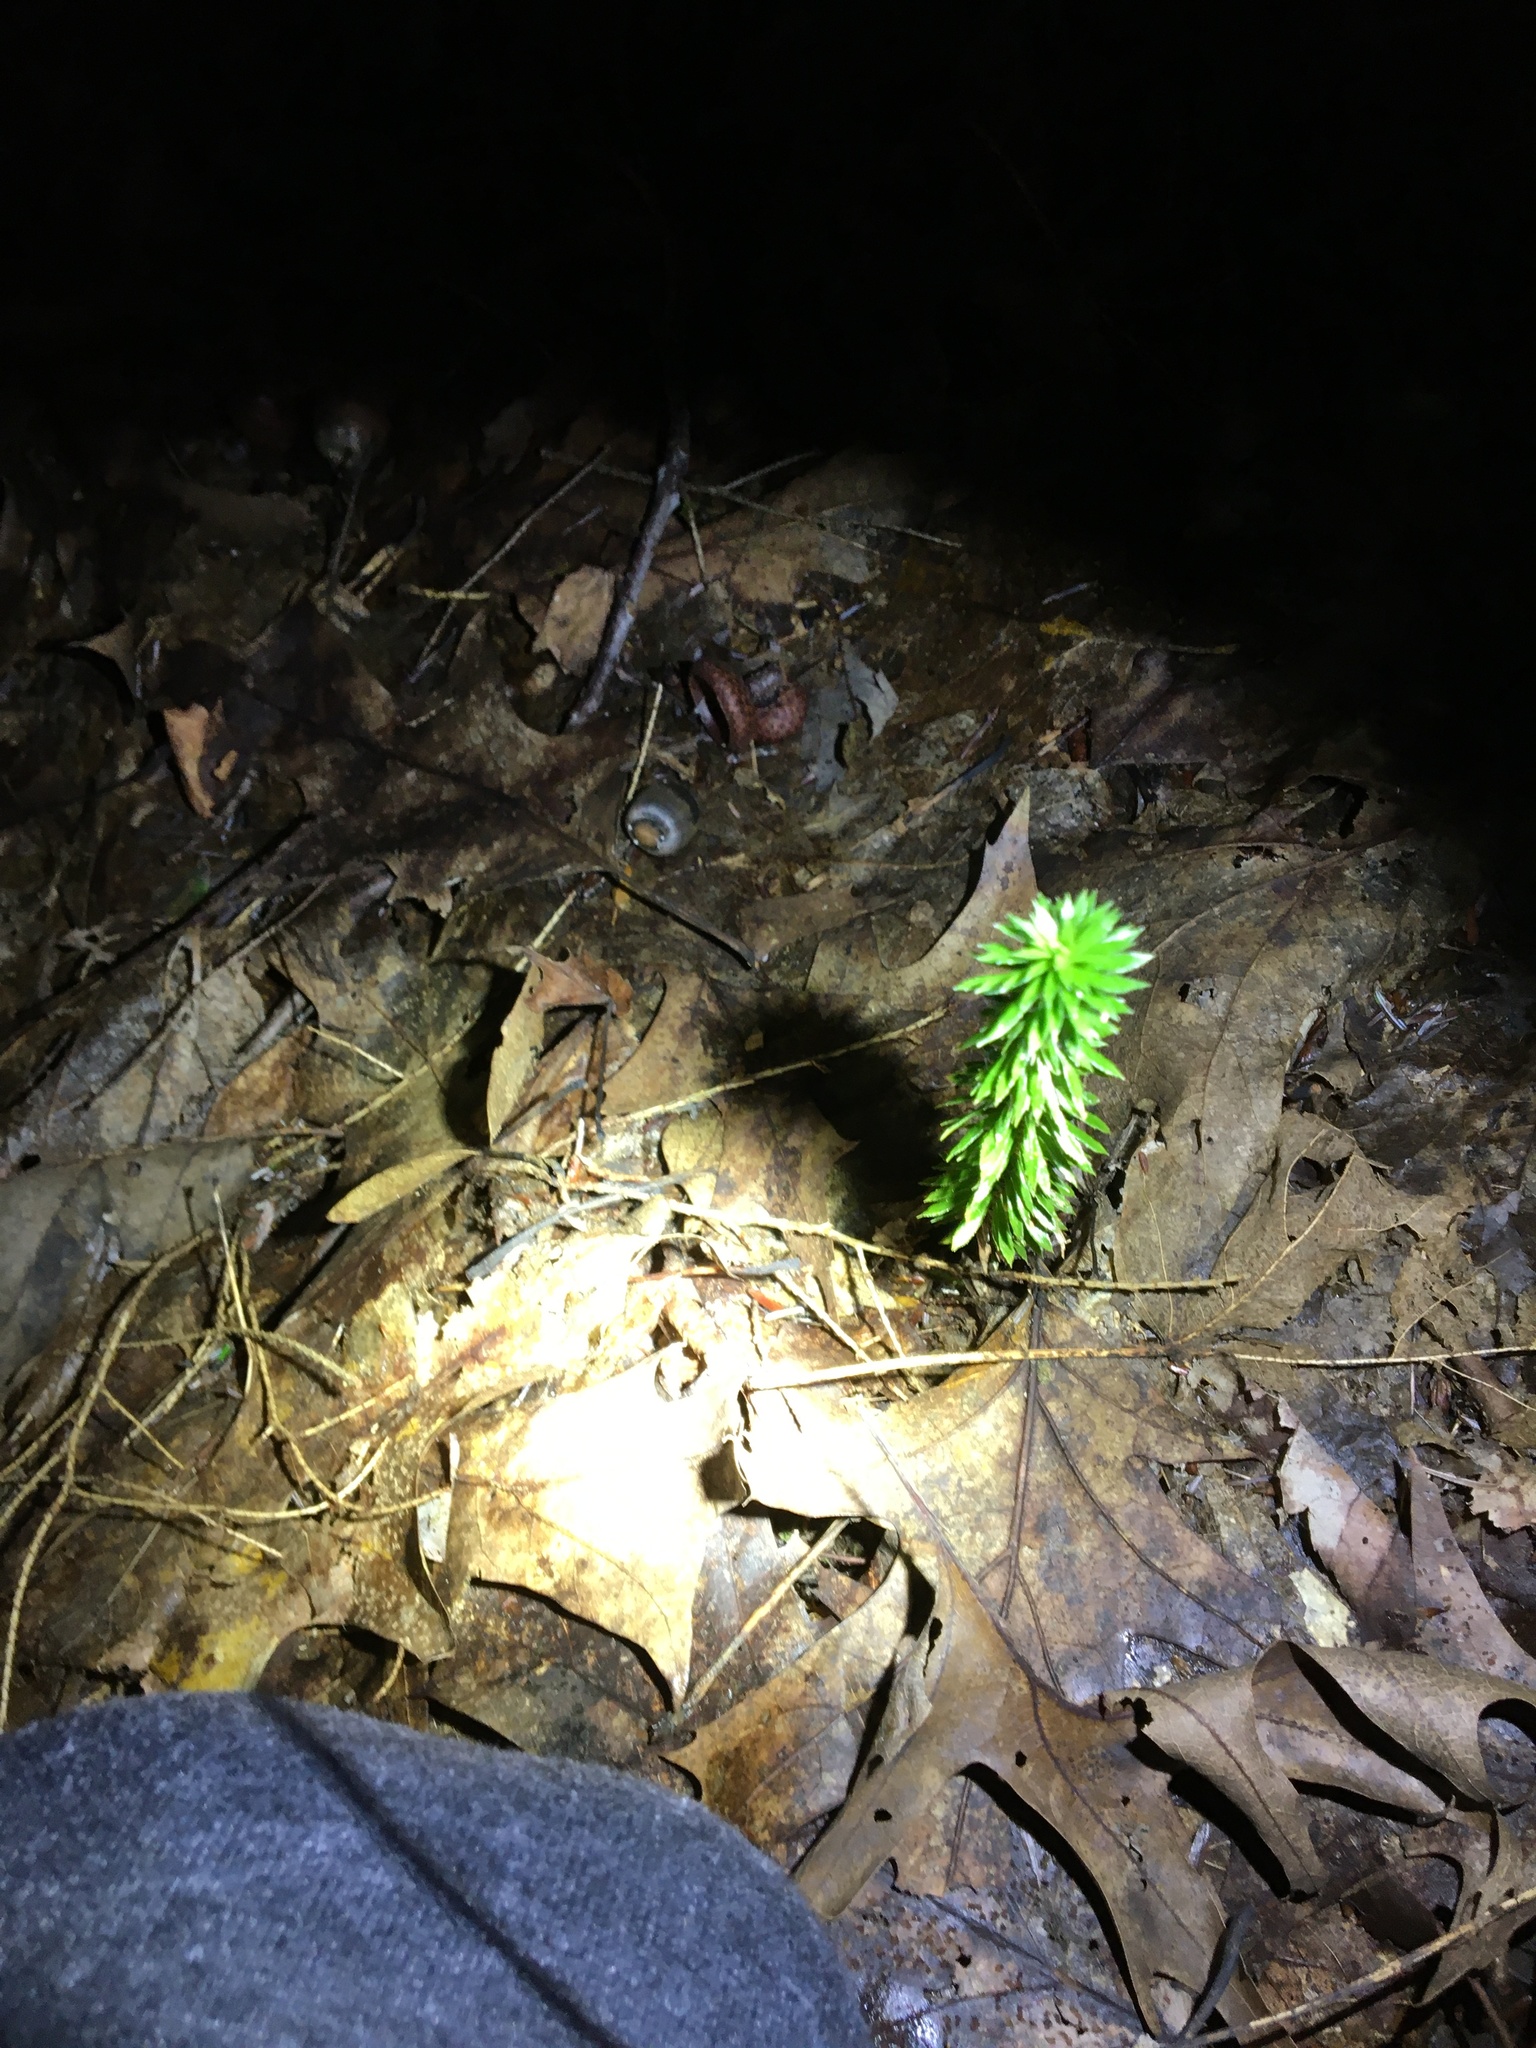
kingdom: Plantae
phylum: Tracheophyta
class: Lycopodiopsida
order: Lycopodiales
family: Lycopodiaceae
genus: Huperzia
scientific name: Huperzia lucidula
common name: Shining clubmoss
